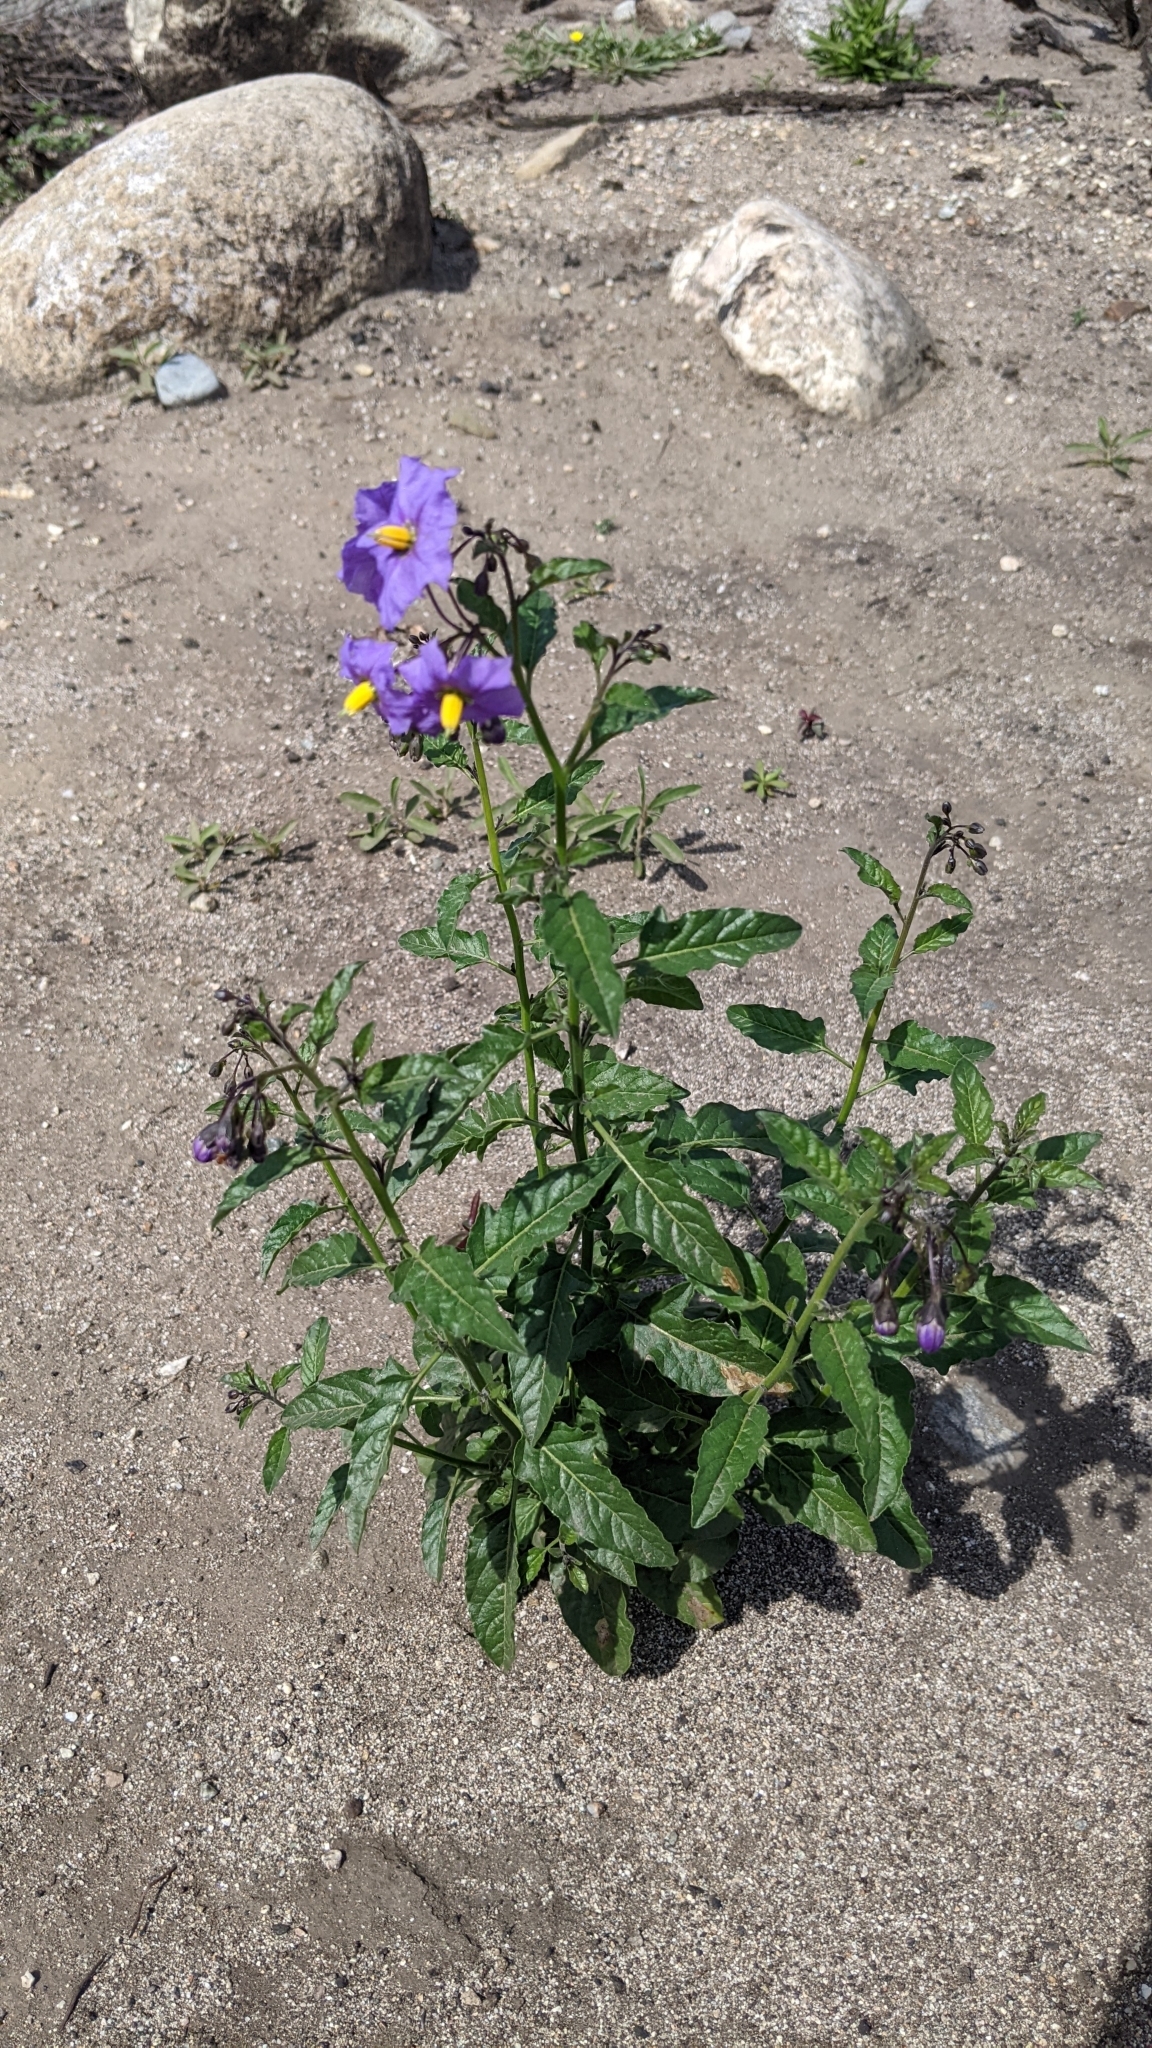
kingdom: Plantae
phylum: Tracheophyta
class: Magnoliopsida
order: Solanales
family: Solanaceae
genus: Solanum
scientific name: Solanum umbelliferum
